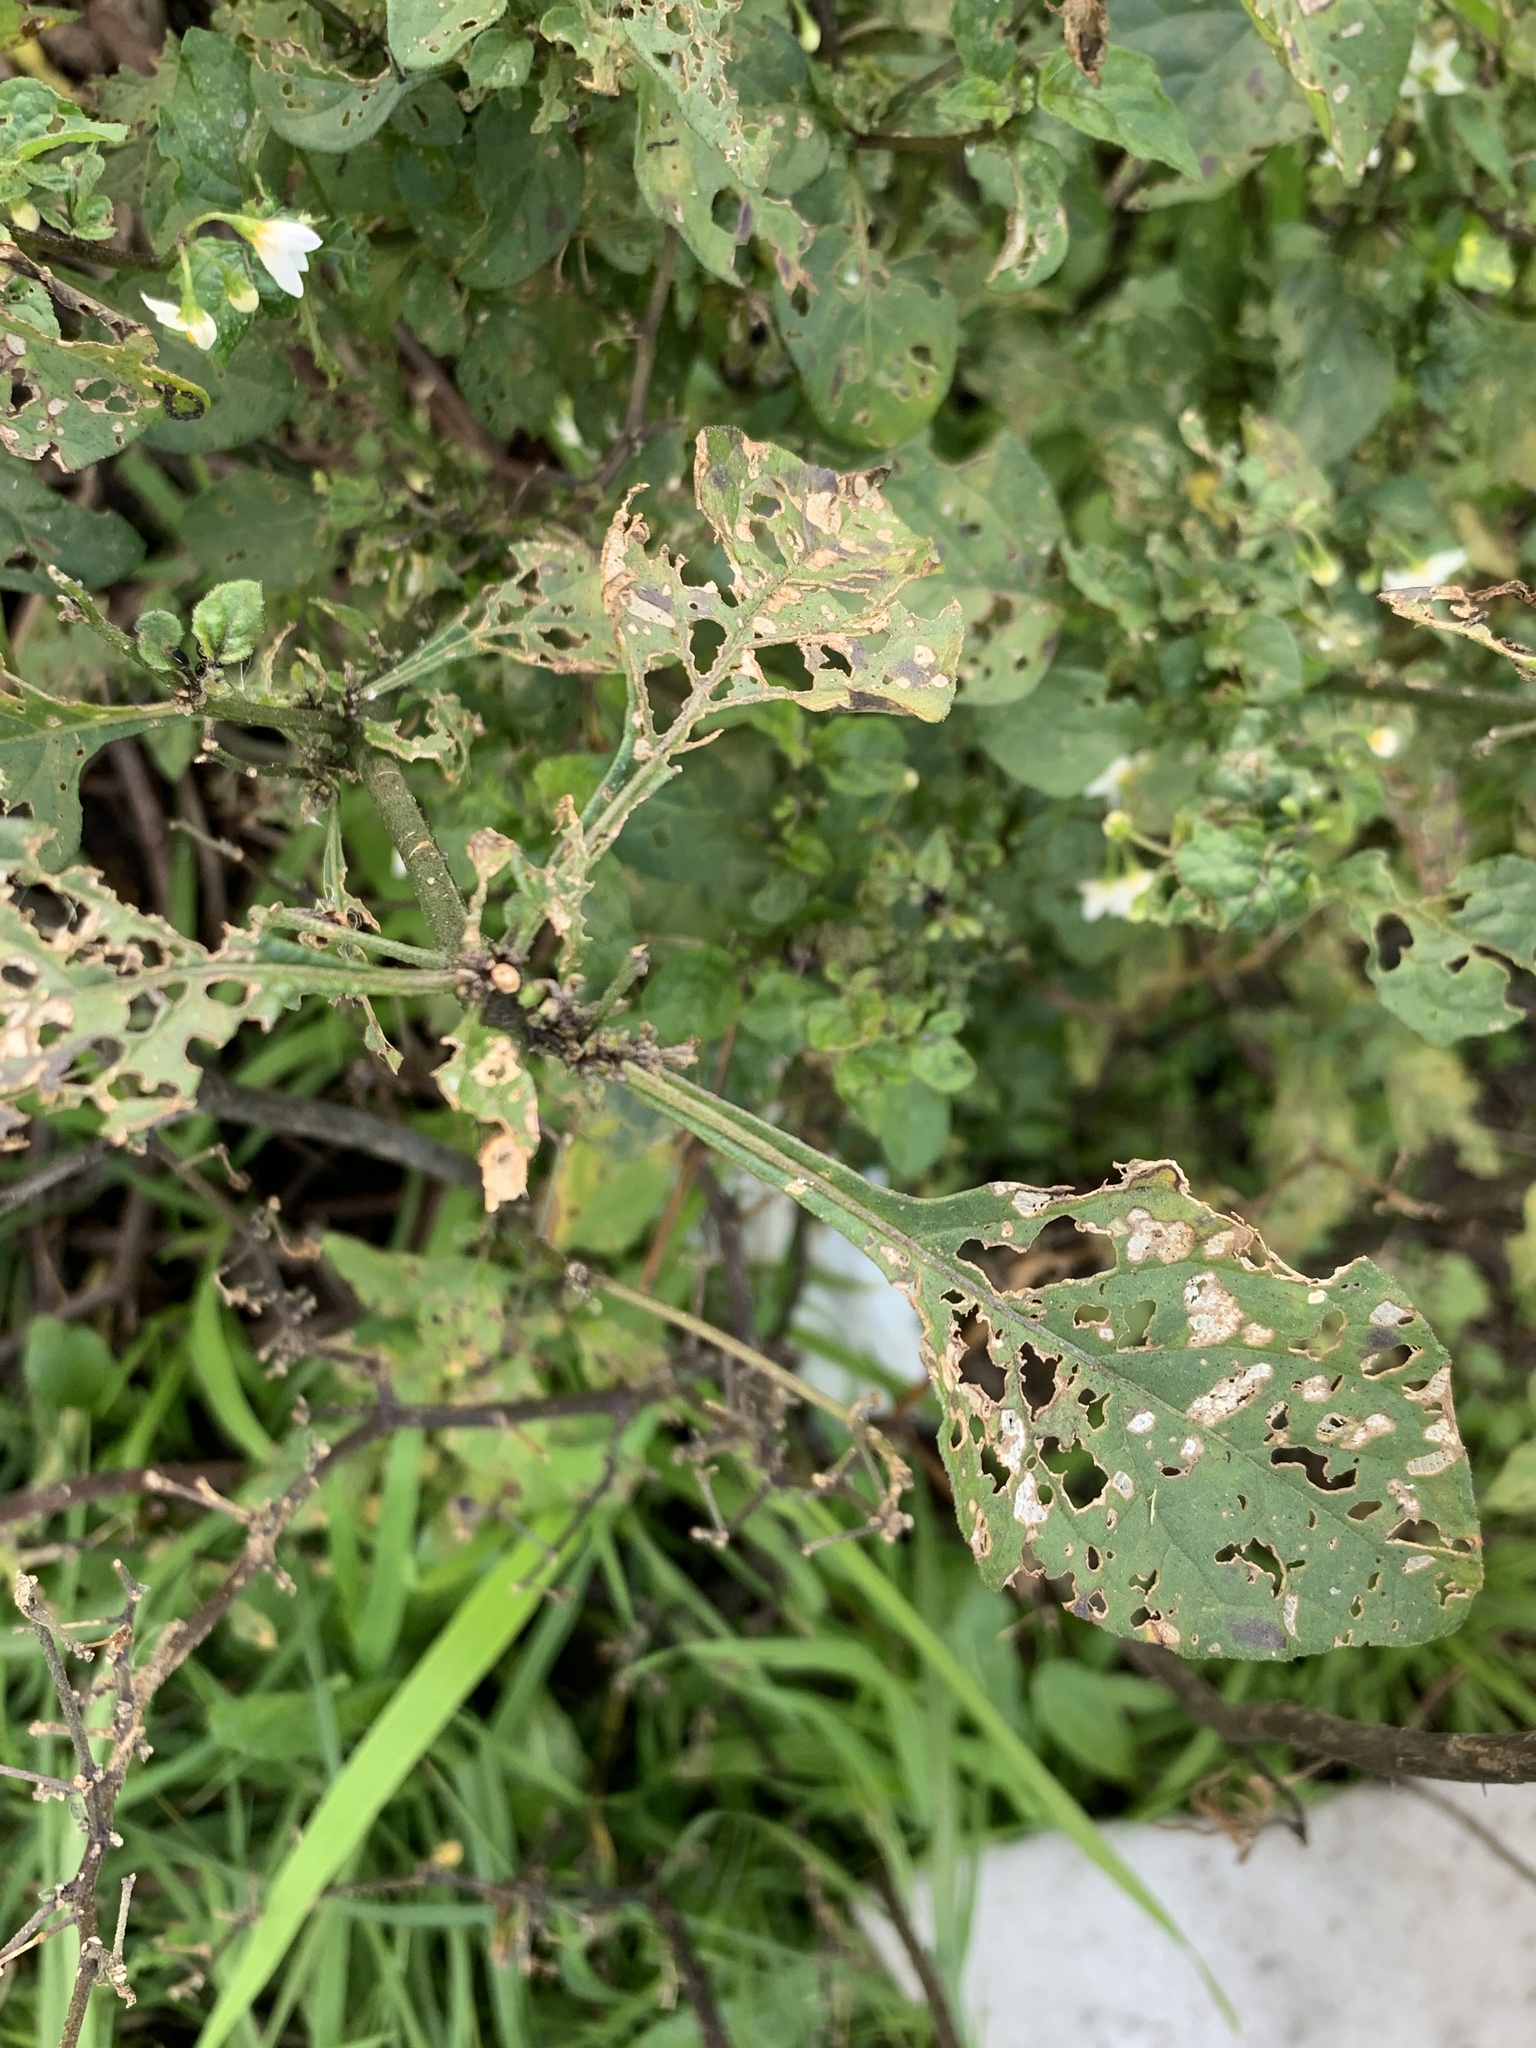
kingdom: Plantae
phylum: Tracheophyta
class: Magnoliopsida
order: Solanales
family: Solanaceae
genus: Solanum
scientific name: Solanum nigrum
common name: Black nightshade
